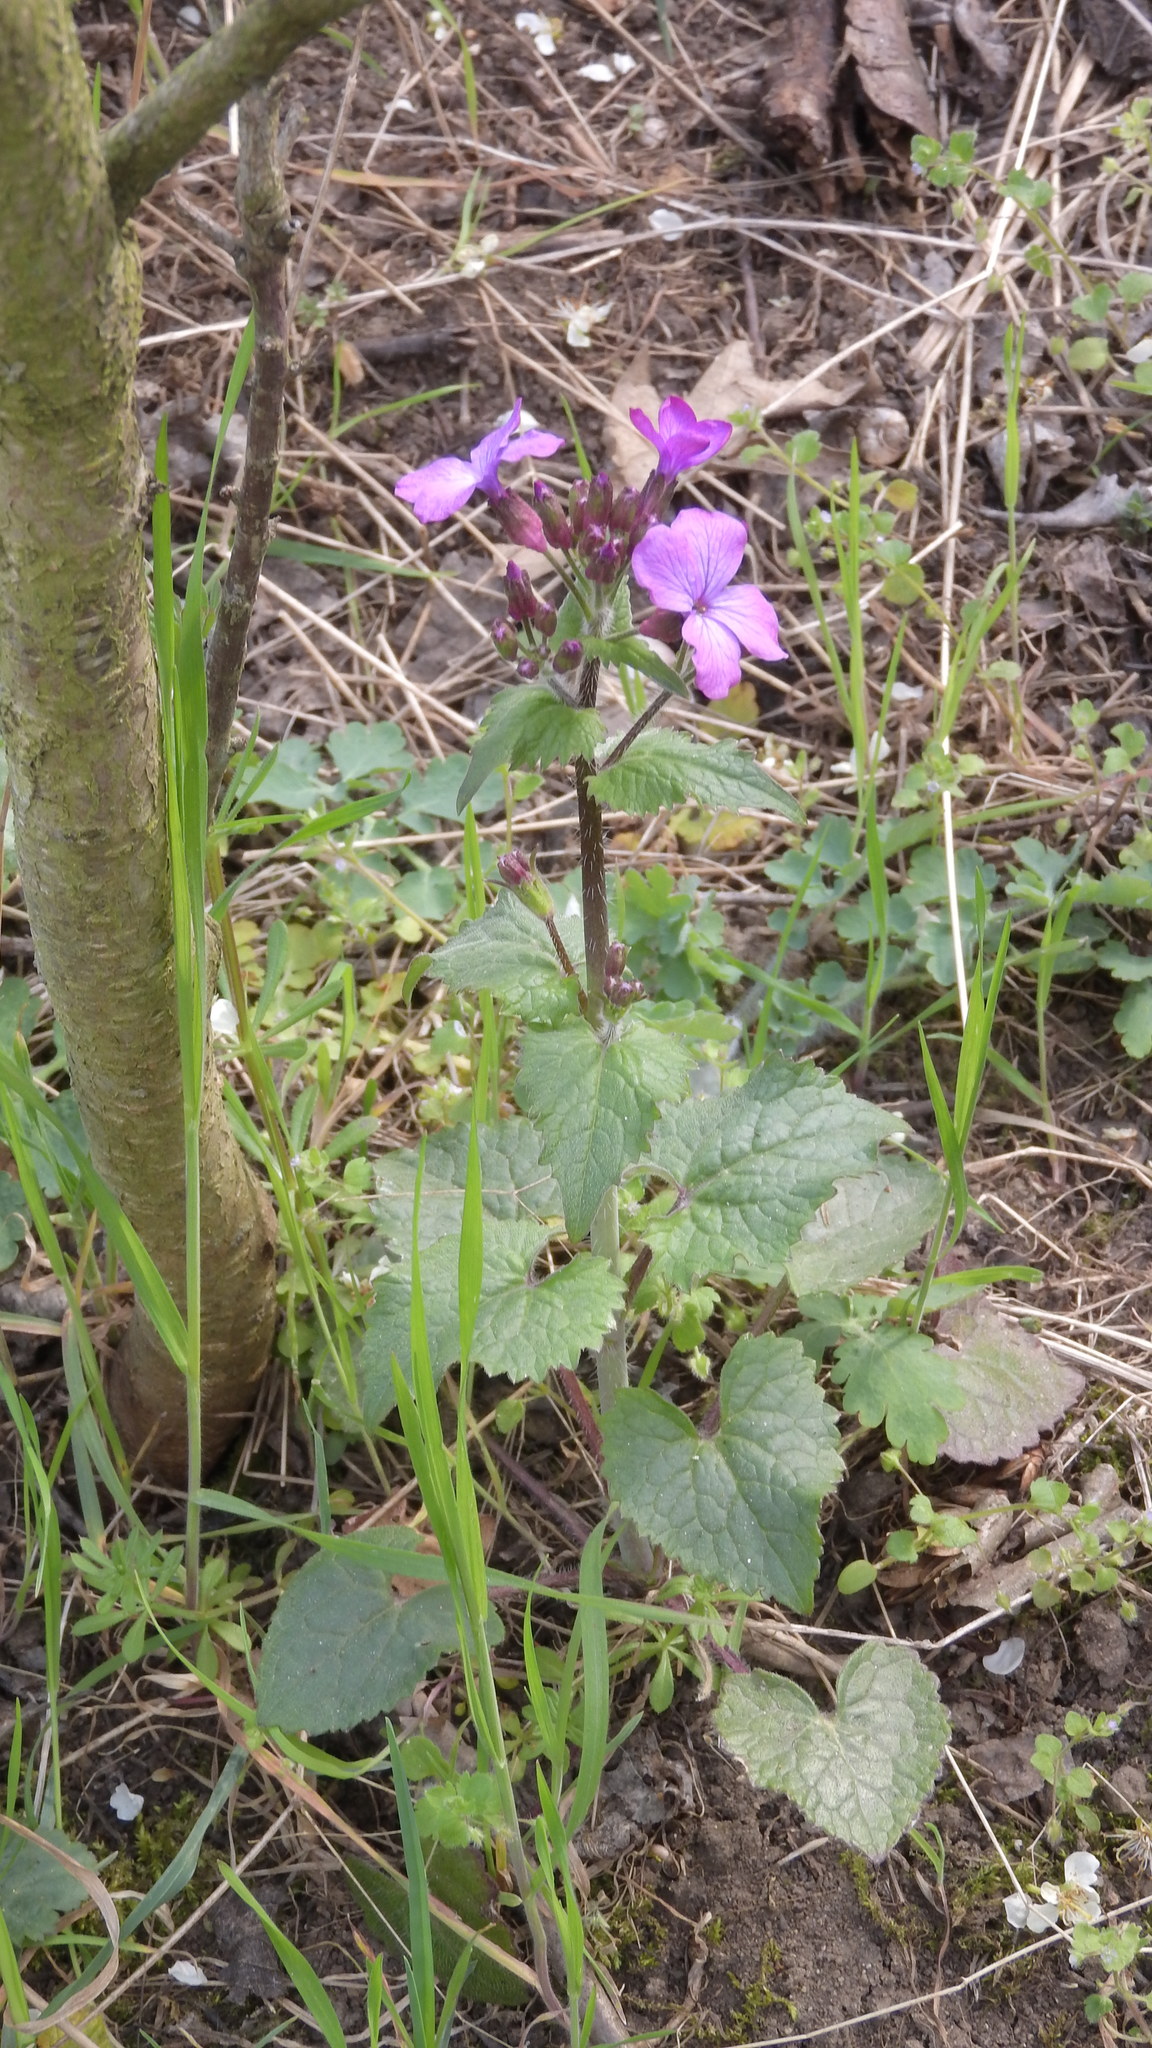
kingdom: Plantae
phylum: Tracheophyta
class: Magnoliopsida
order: Brassicales
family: Brassicaceae
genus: Lunaria
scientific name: Lunaria annua
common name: Honesty
